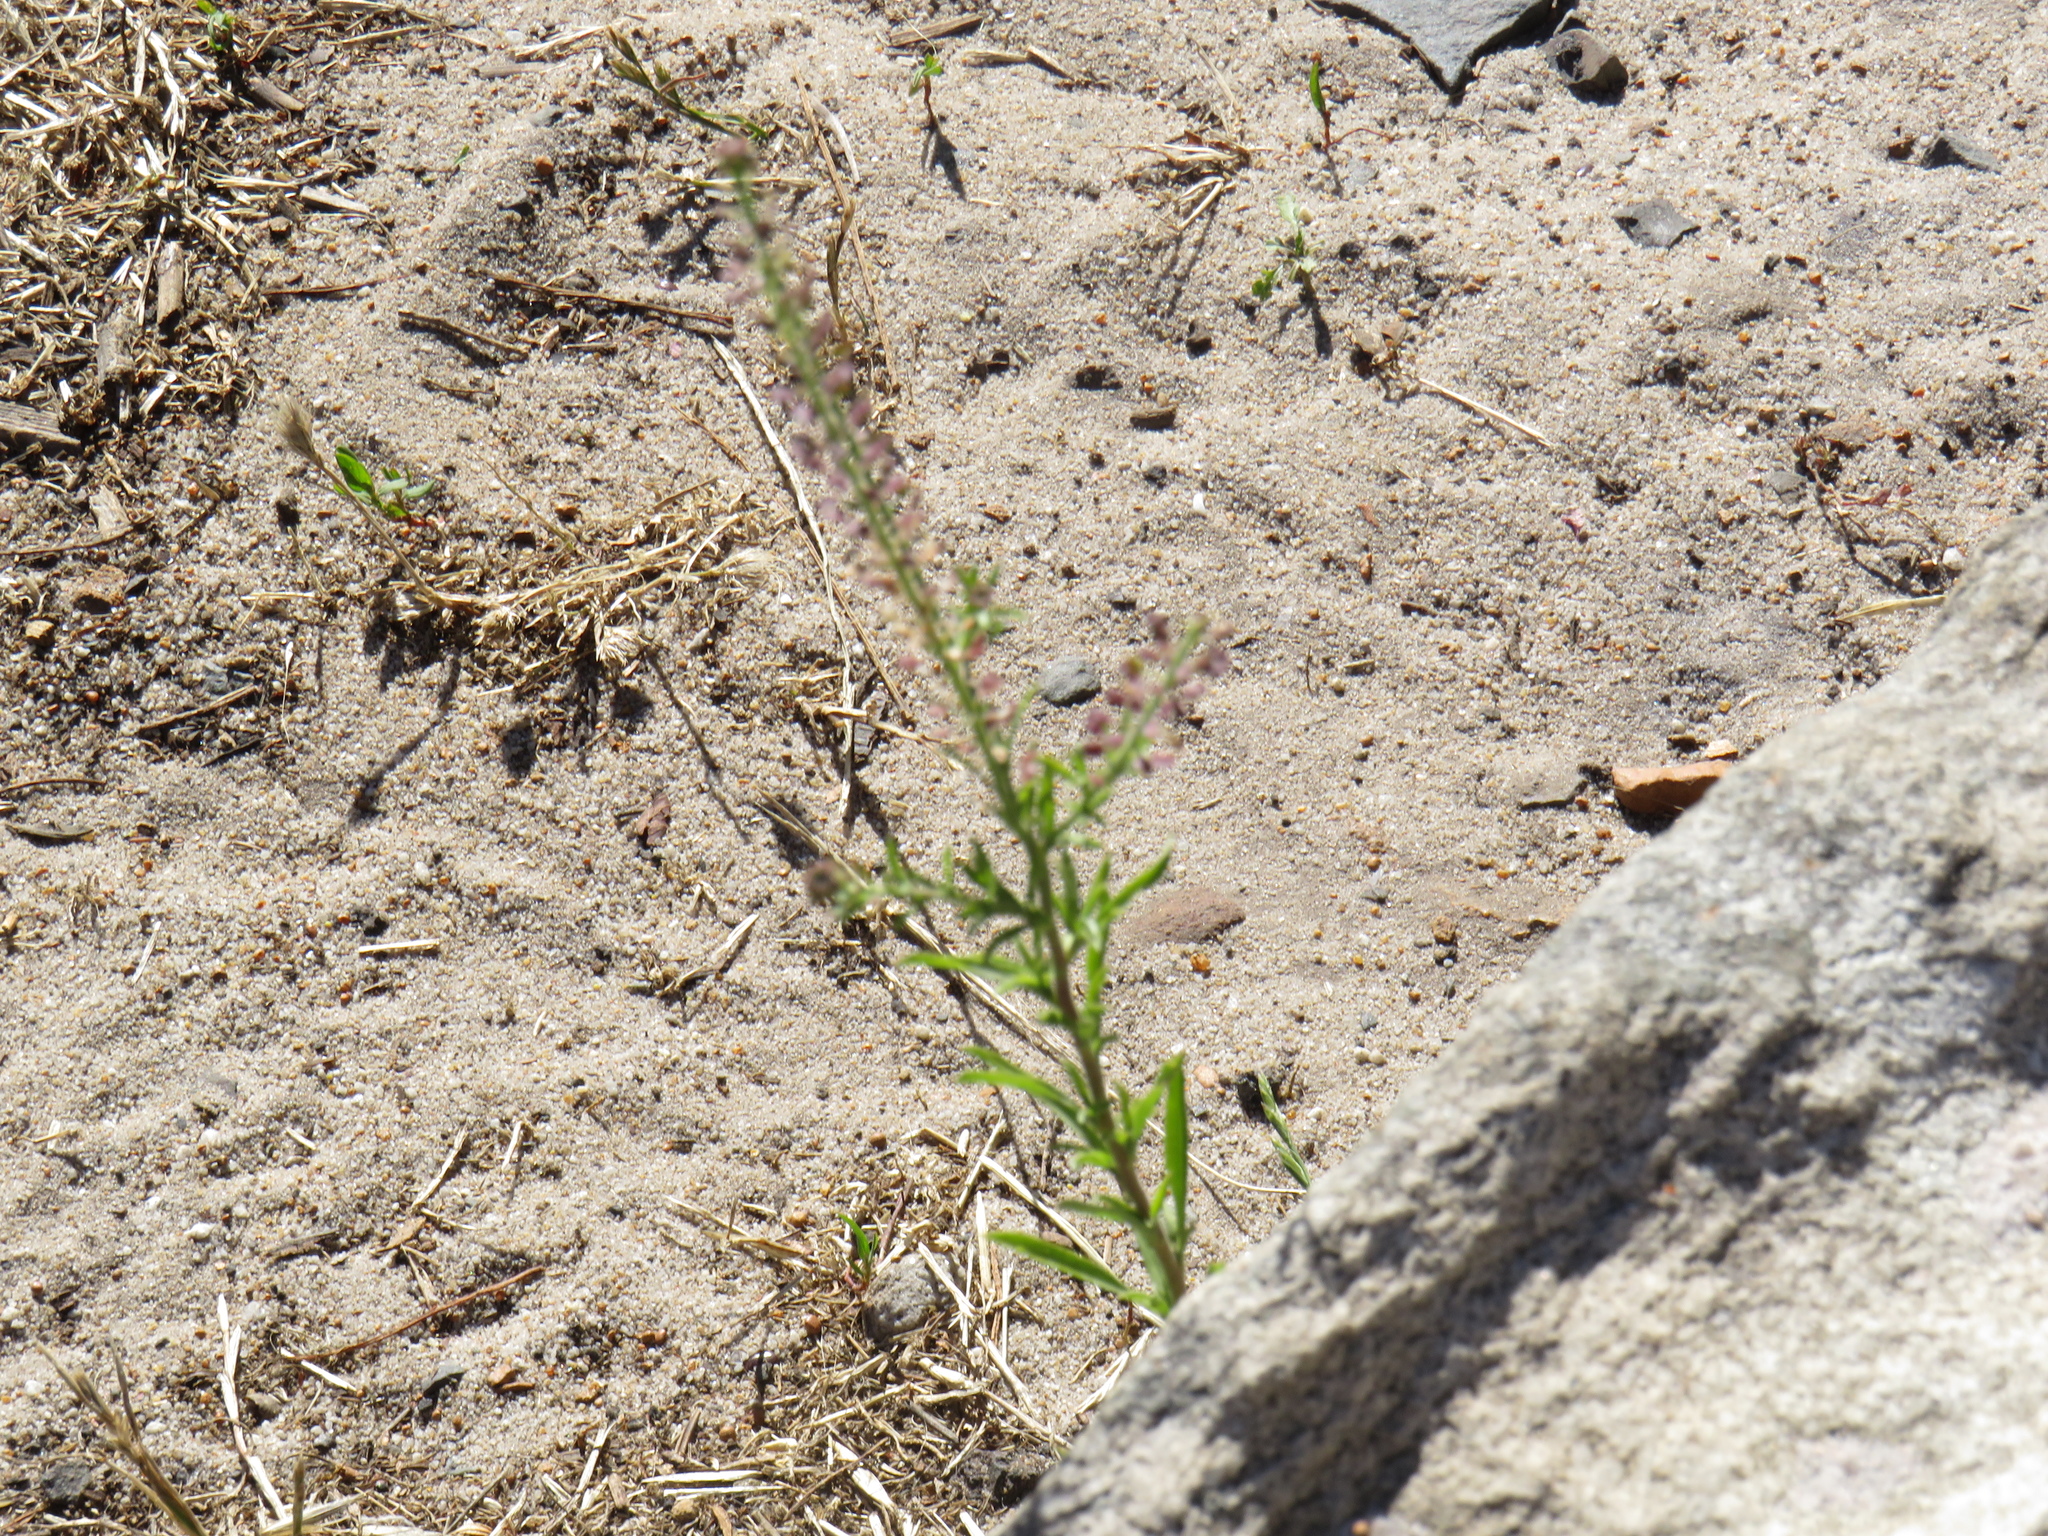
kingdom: Plantae
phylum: Tracheophyta
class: Magnoliopsida
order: Brassicales
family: Brassicaceae
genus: Lepidium
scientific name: Lepidium africanum
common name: African pepperwort
